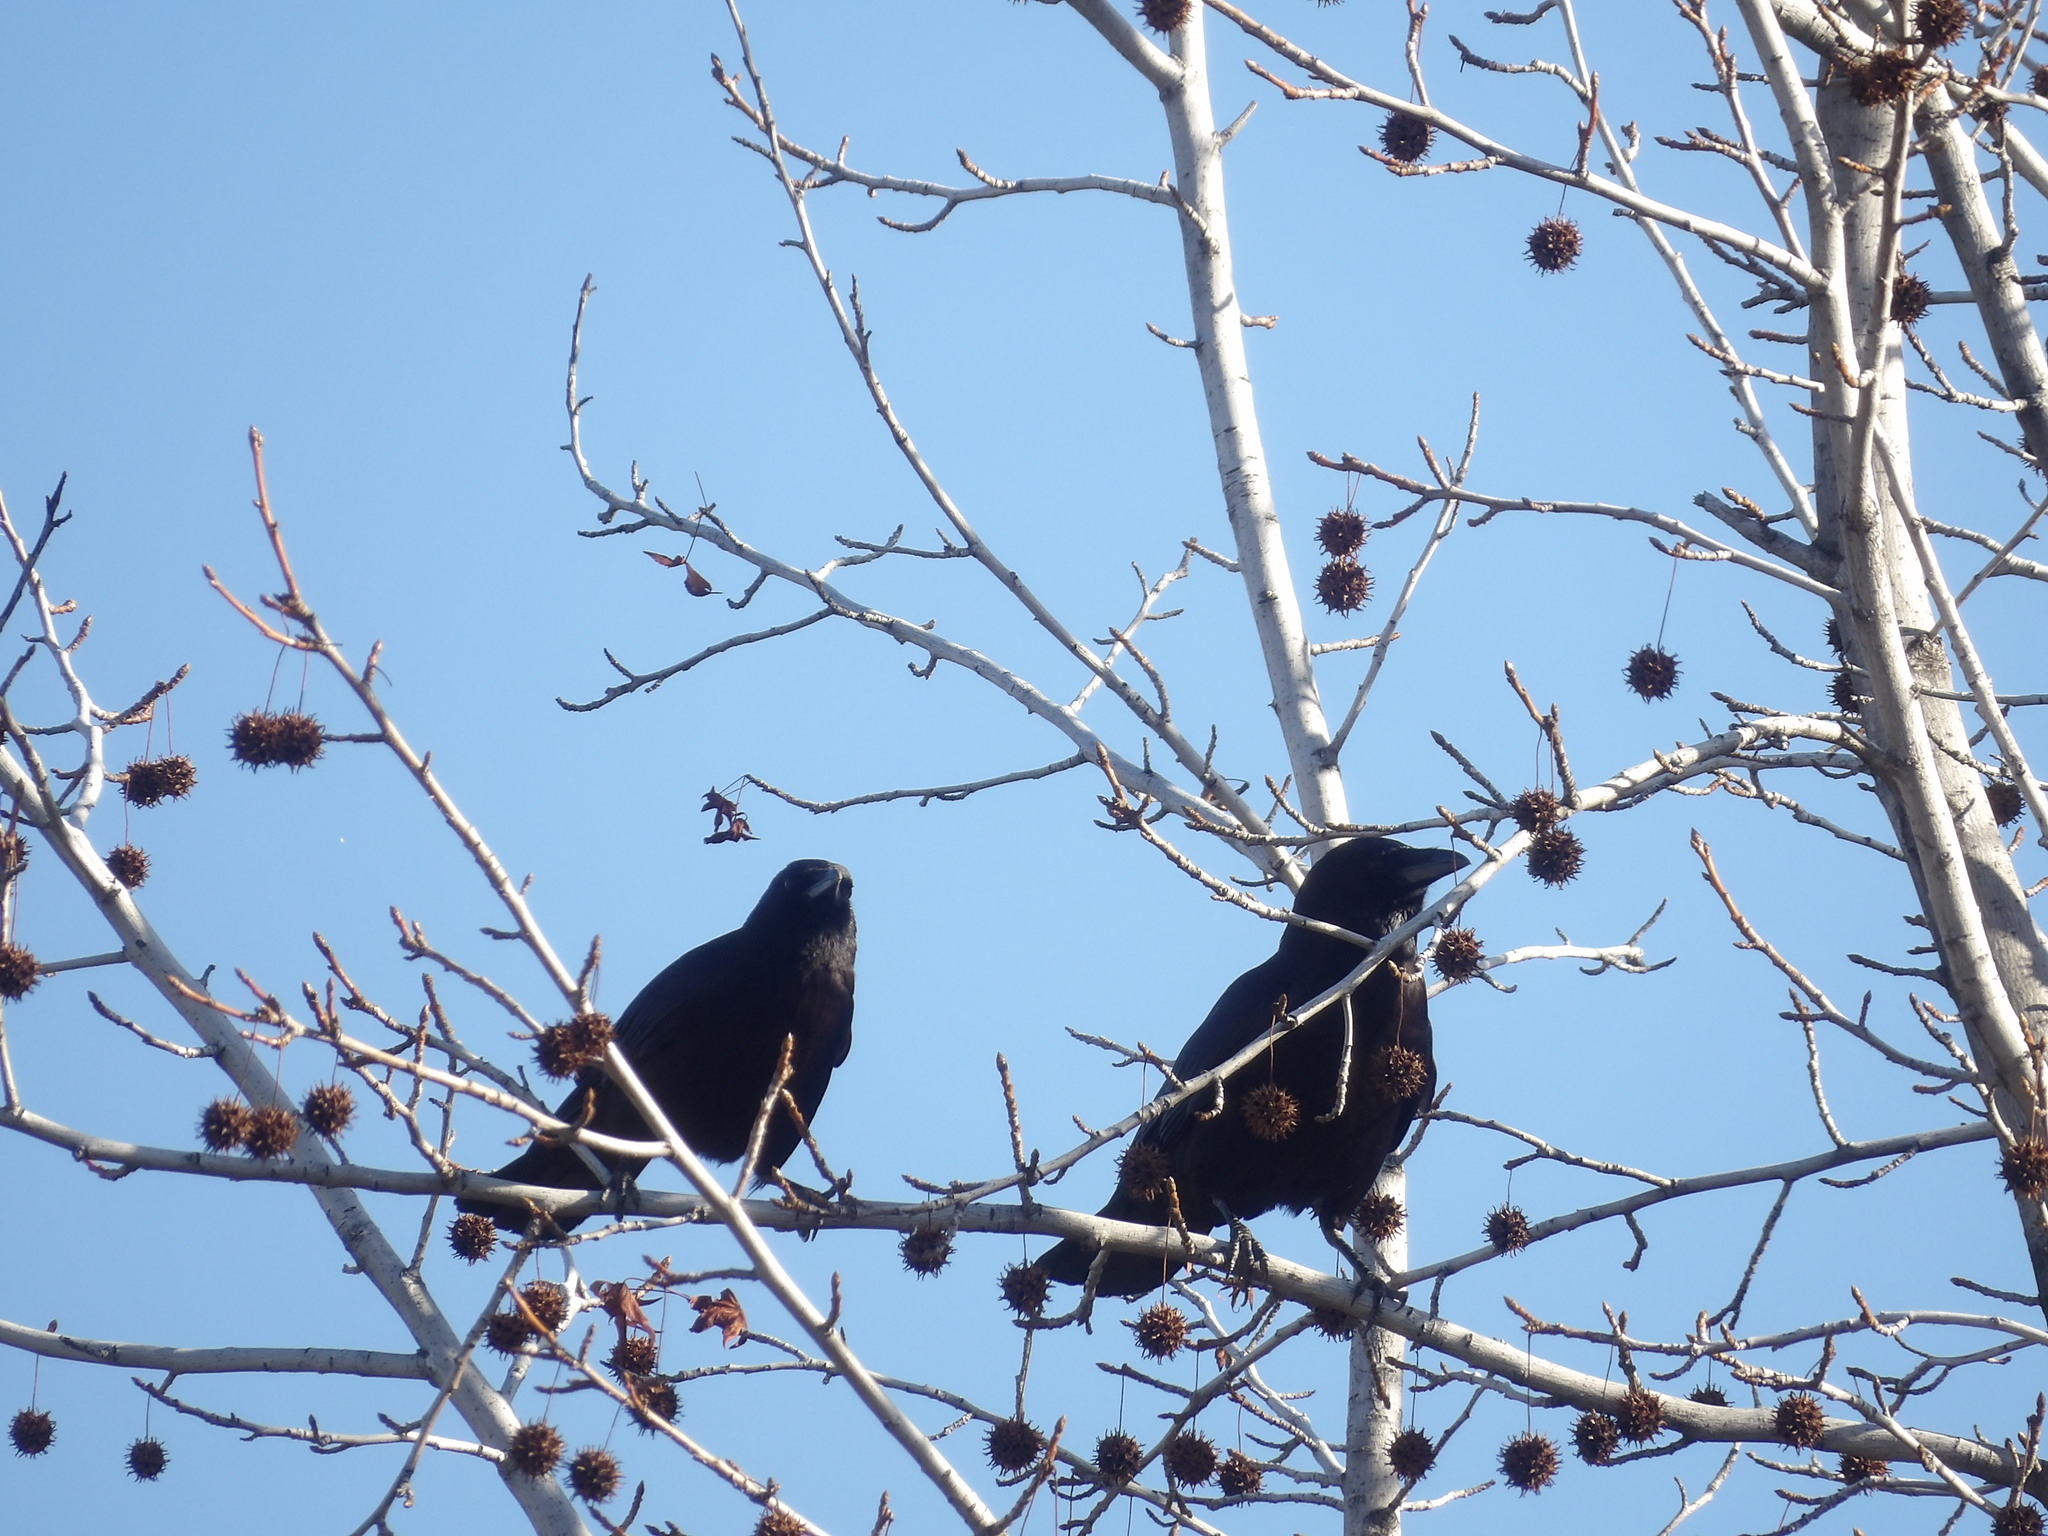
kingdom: Animalia
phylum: Chordata
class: Aves
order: Passeriformes
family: Corvidae
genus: Corvus
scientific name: Corvus brachyrhynchos
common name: American crow
